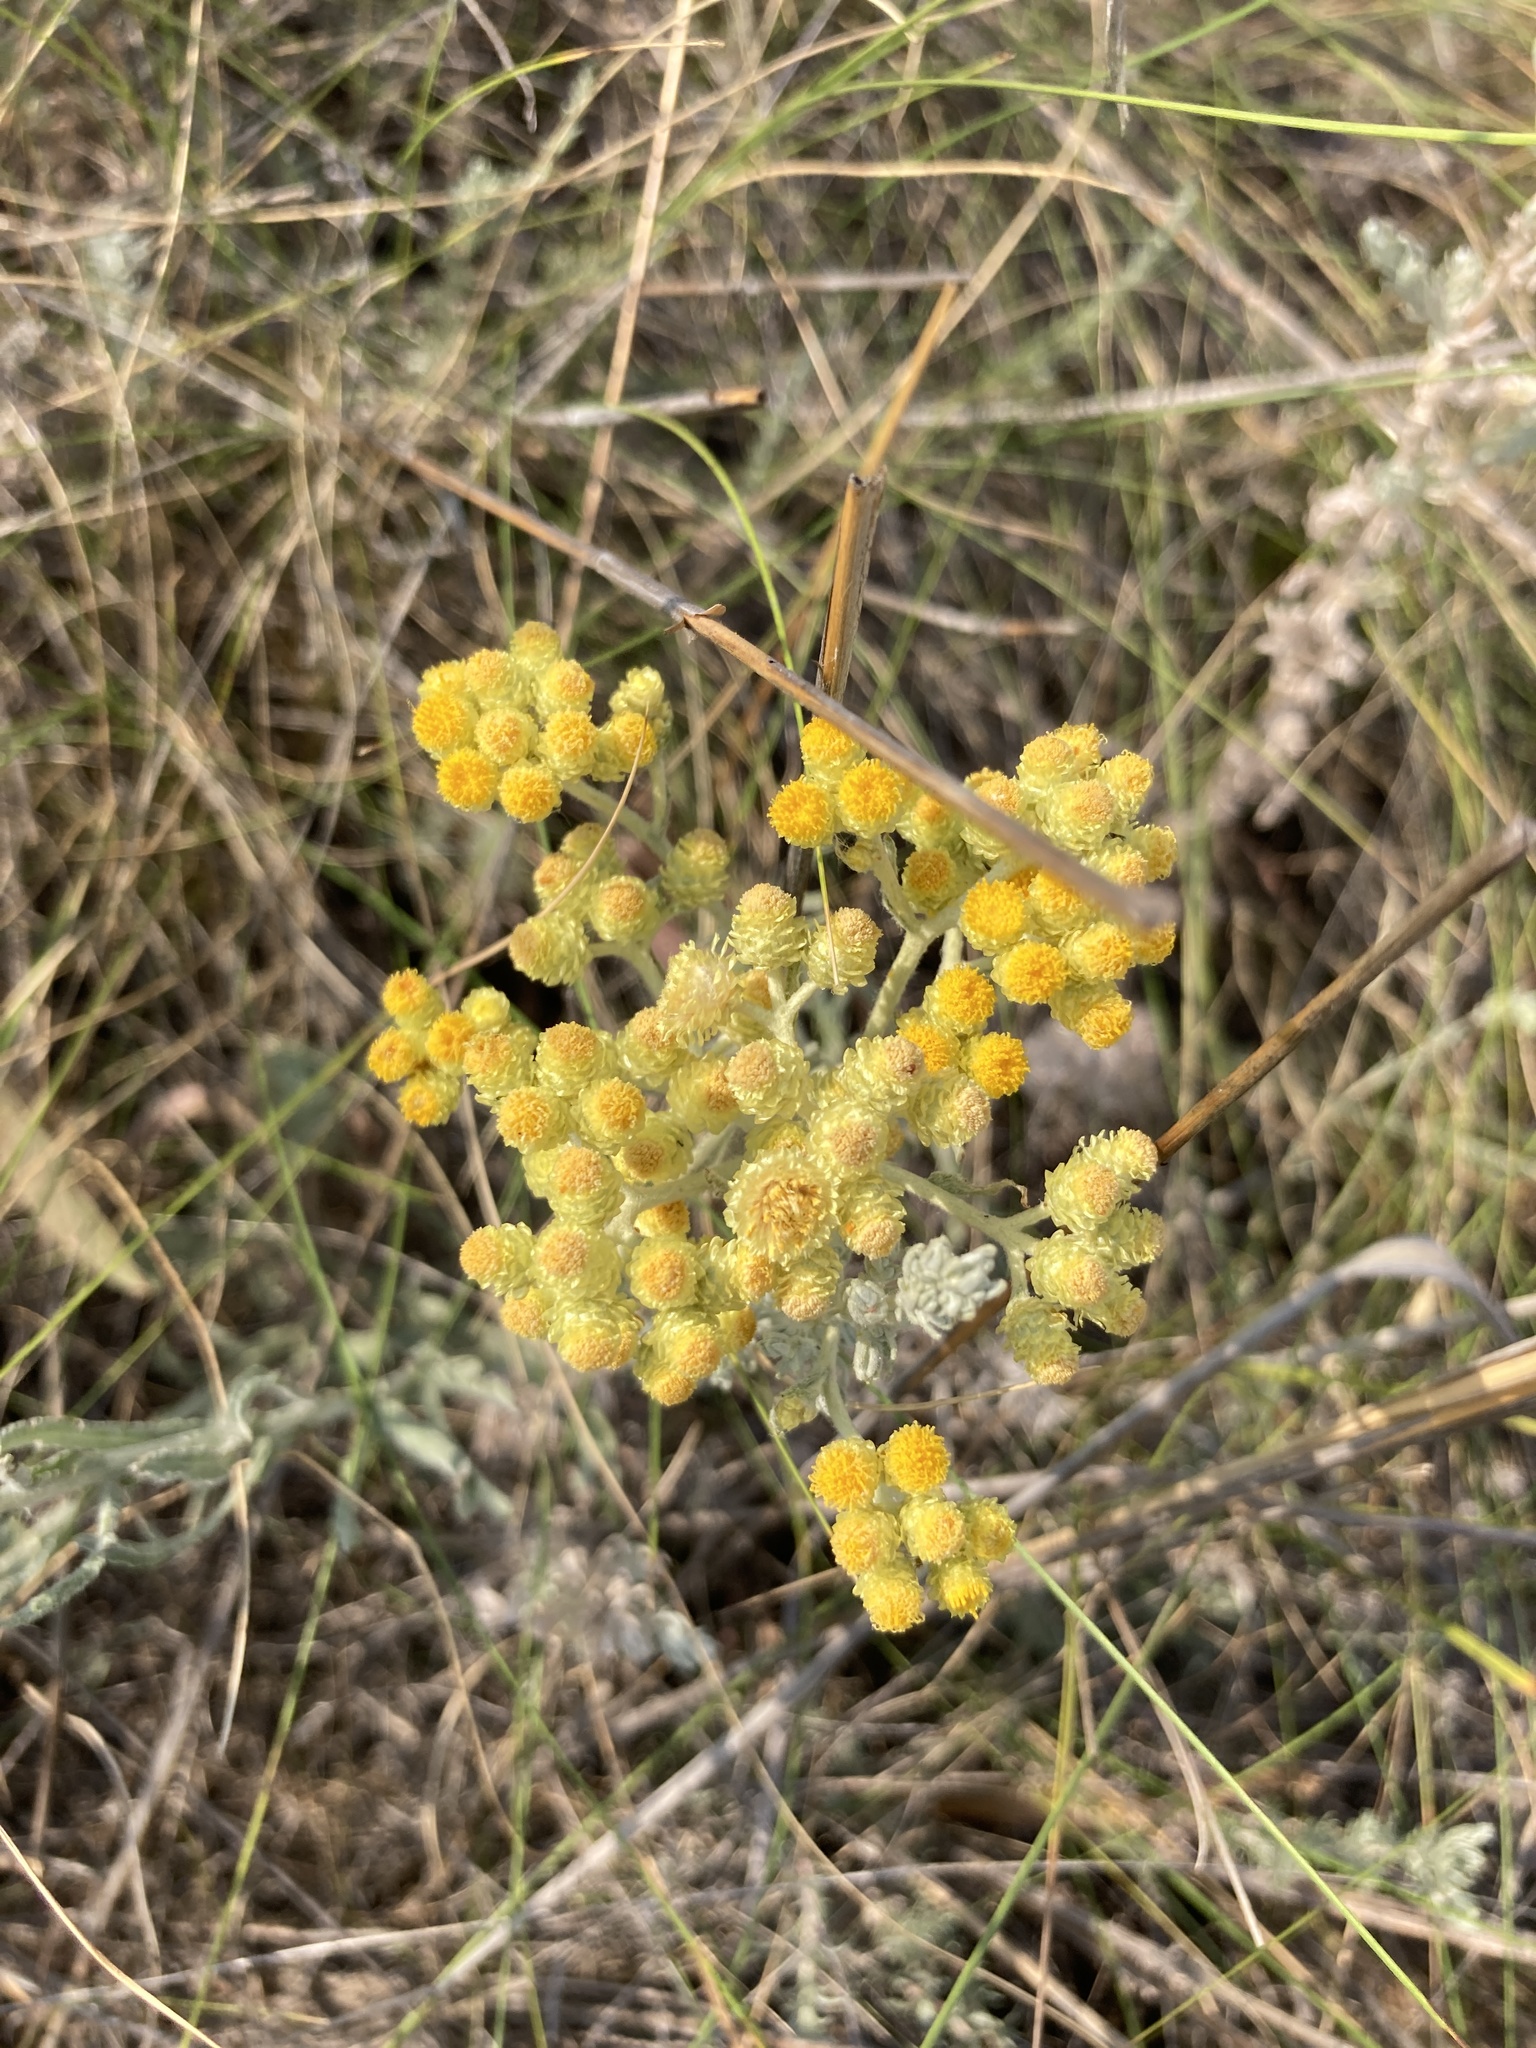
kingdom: Plantae
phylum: Tracheophyta
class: Magnoliopsida
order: Asterales
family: Asteraceae
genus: Helichrysum
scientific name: Helichrysum arenarium
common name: Strawflower
